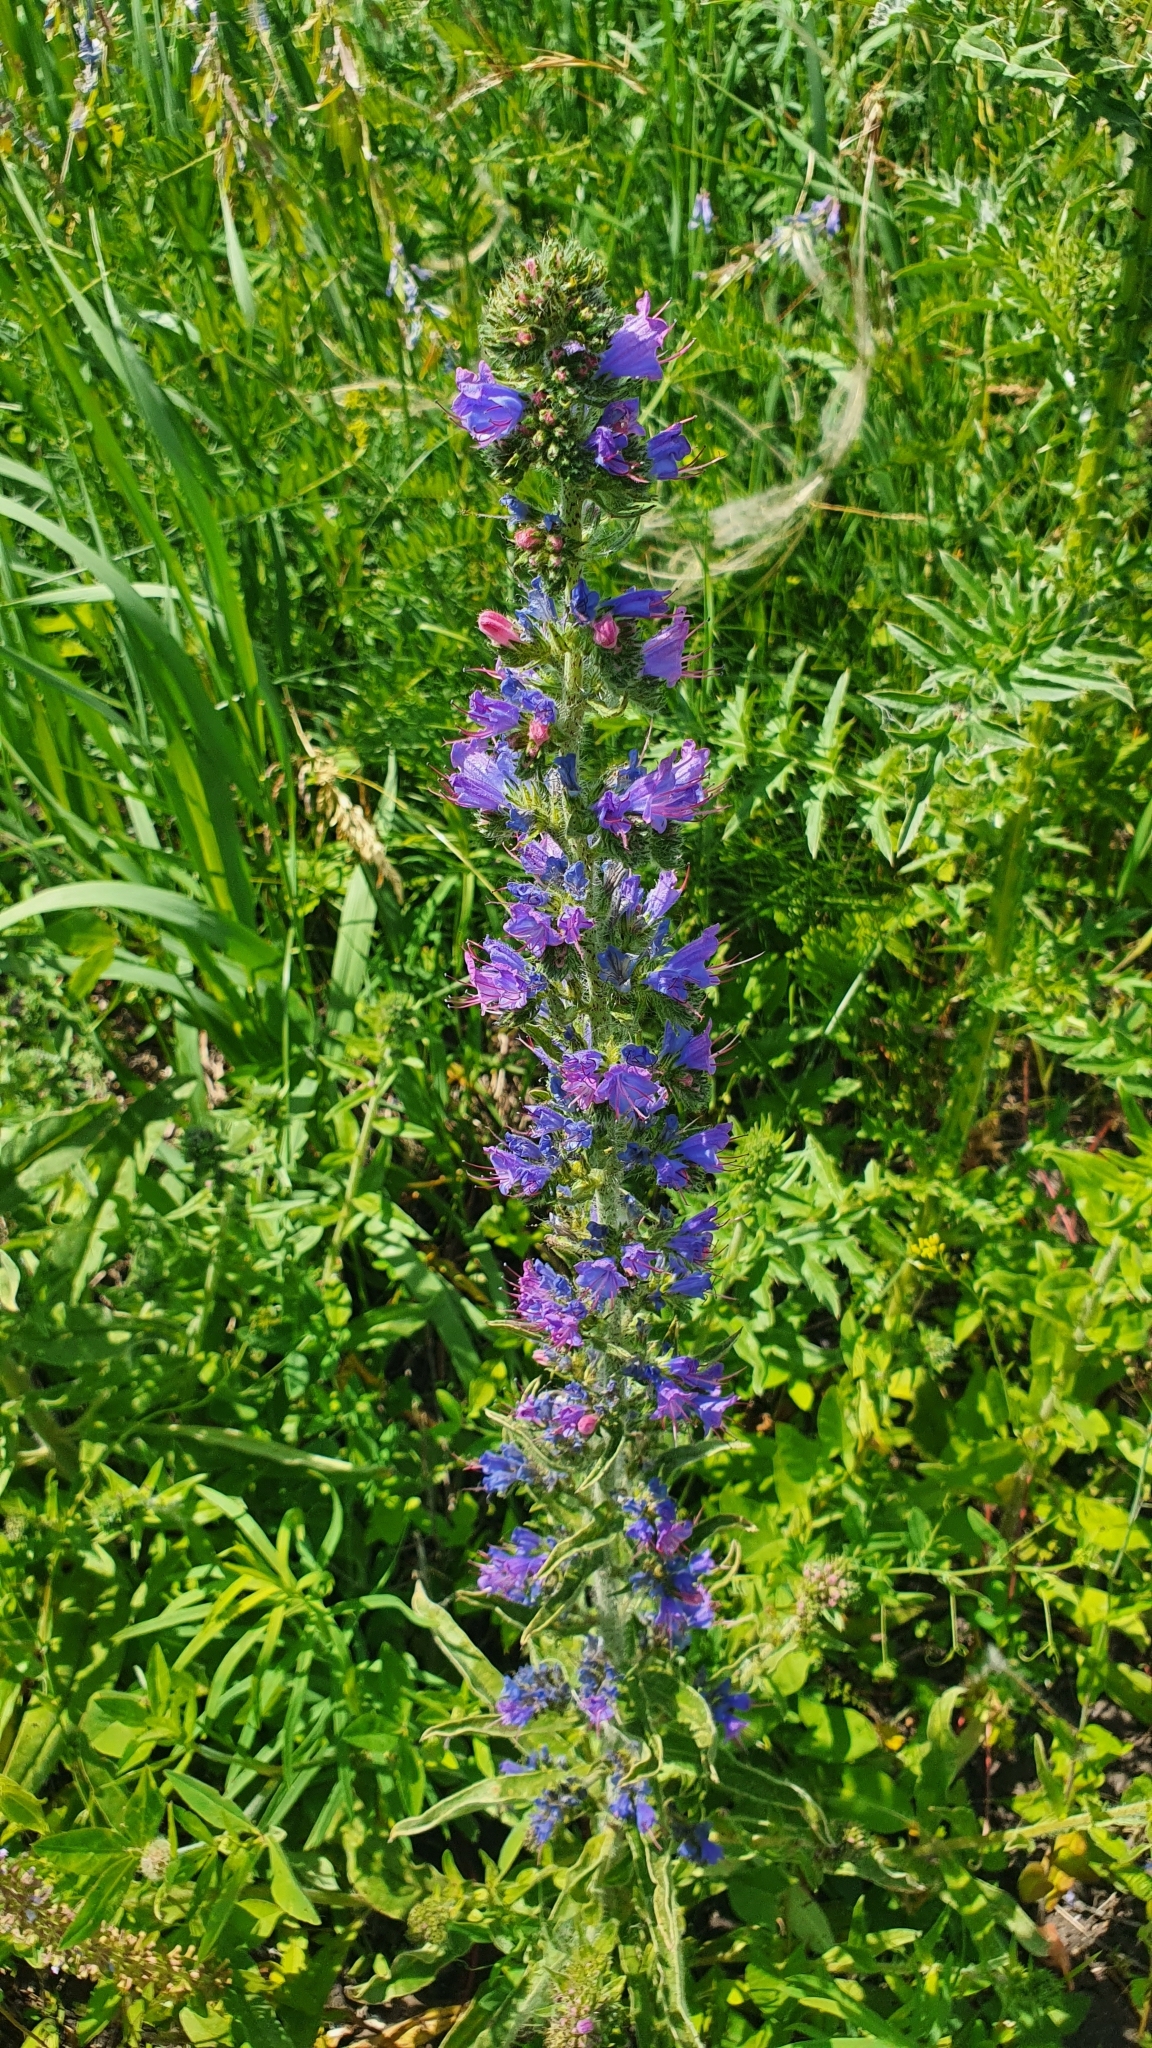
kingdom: Plantae
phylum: Tracheophyta
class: Magnoliopsida
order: Boraginales
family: Boraginaceae
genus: Echium
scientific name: Echium vulgare
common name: Common viper's bugloss
